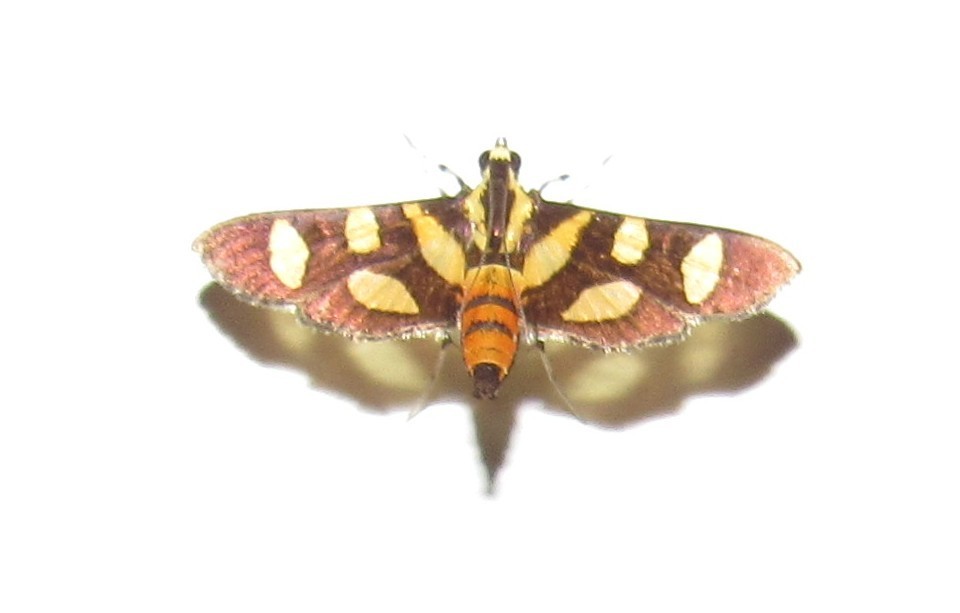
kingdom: Animalia
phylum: Arthropoda
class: Insecta
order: Lepidoptera
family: Crambidae
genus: Syngamia
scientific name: Syngamia florella
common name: Orange-spotted flower moth
